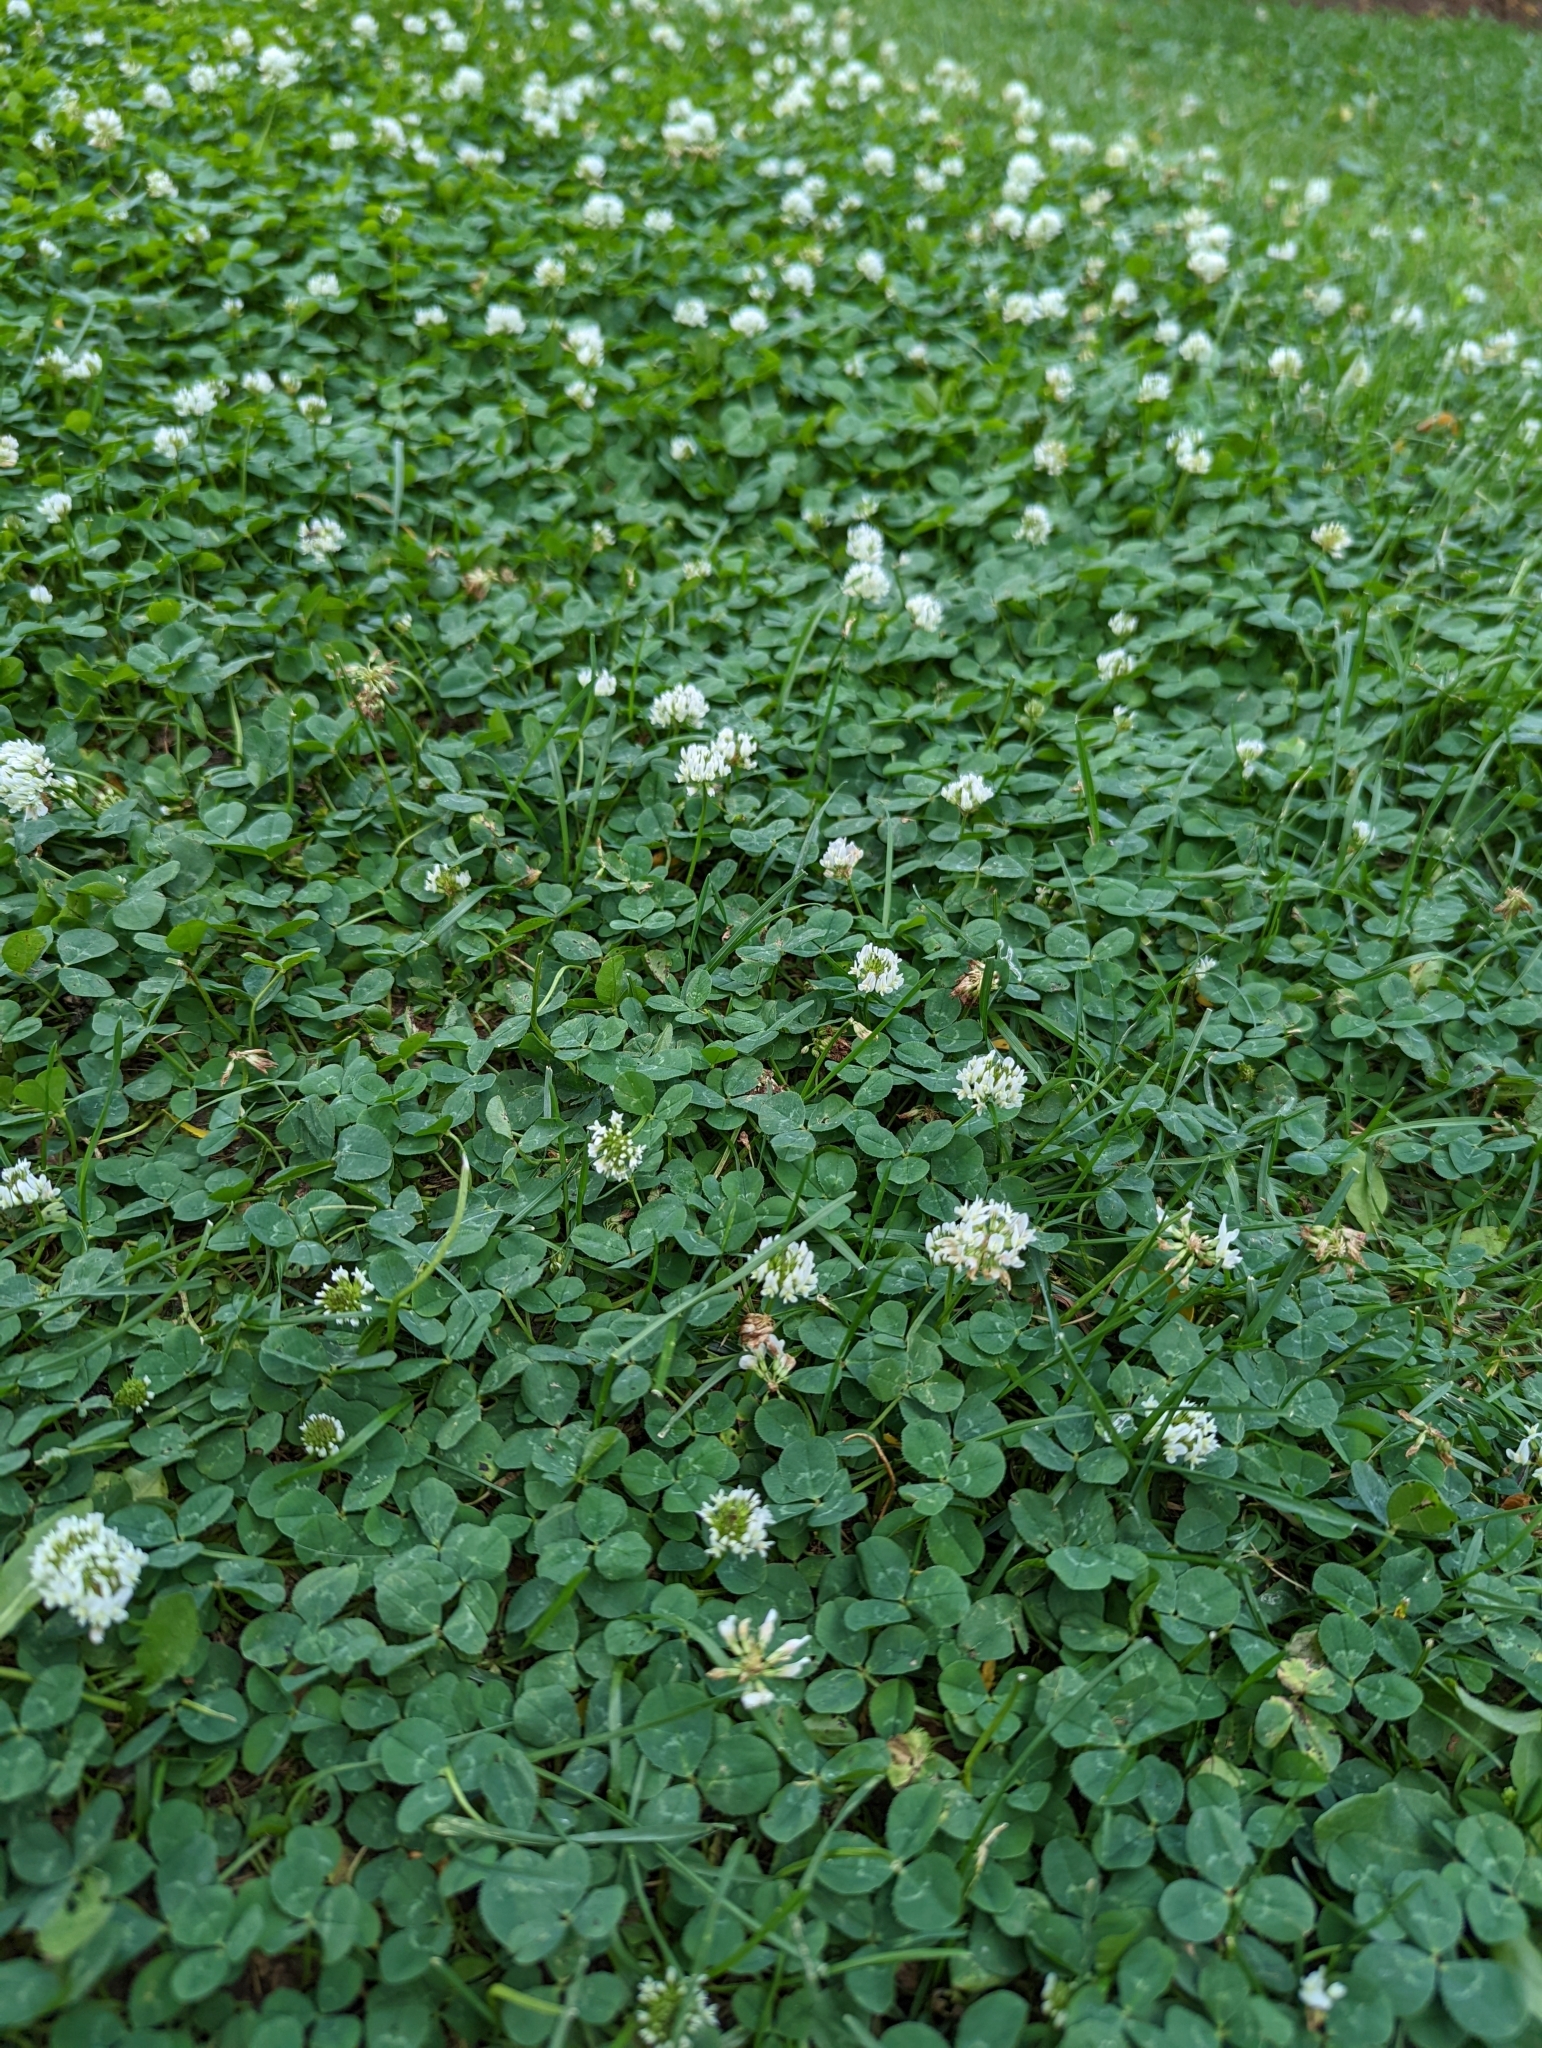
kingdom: Plantae
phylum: Tracheophyta
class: Magnoliopsida
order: Fabales
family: Fabaceae
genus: Trifolium
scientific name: Trifolium repens
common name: White clover
